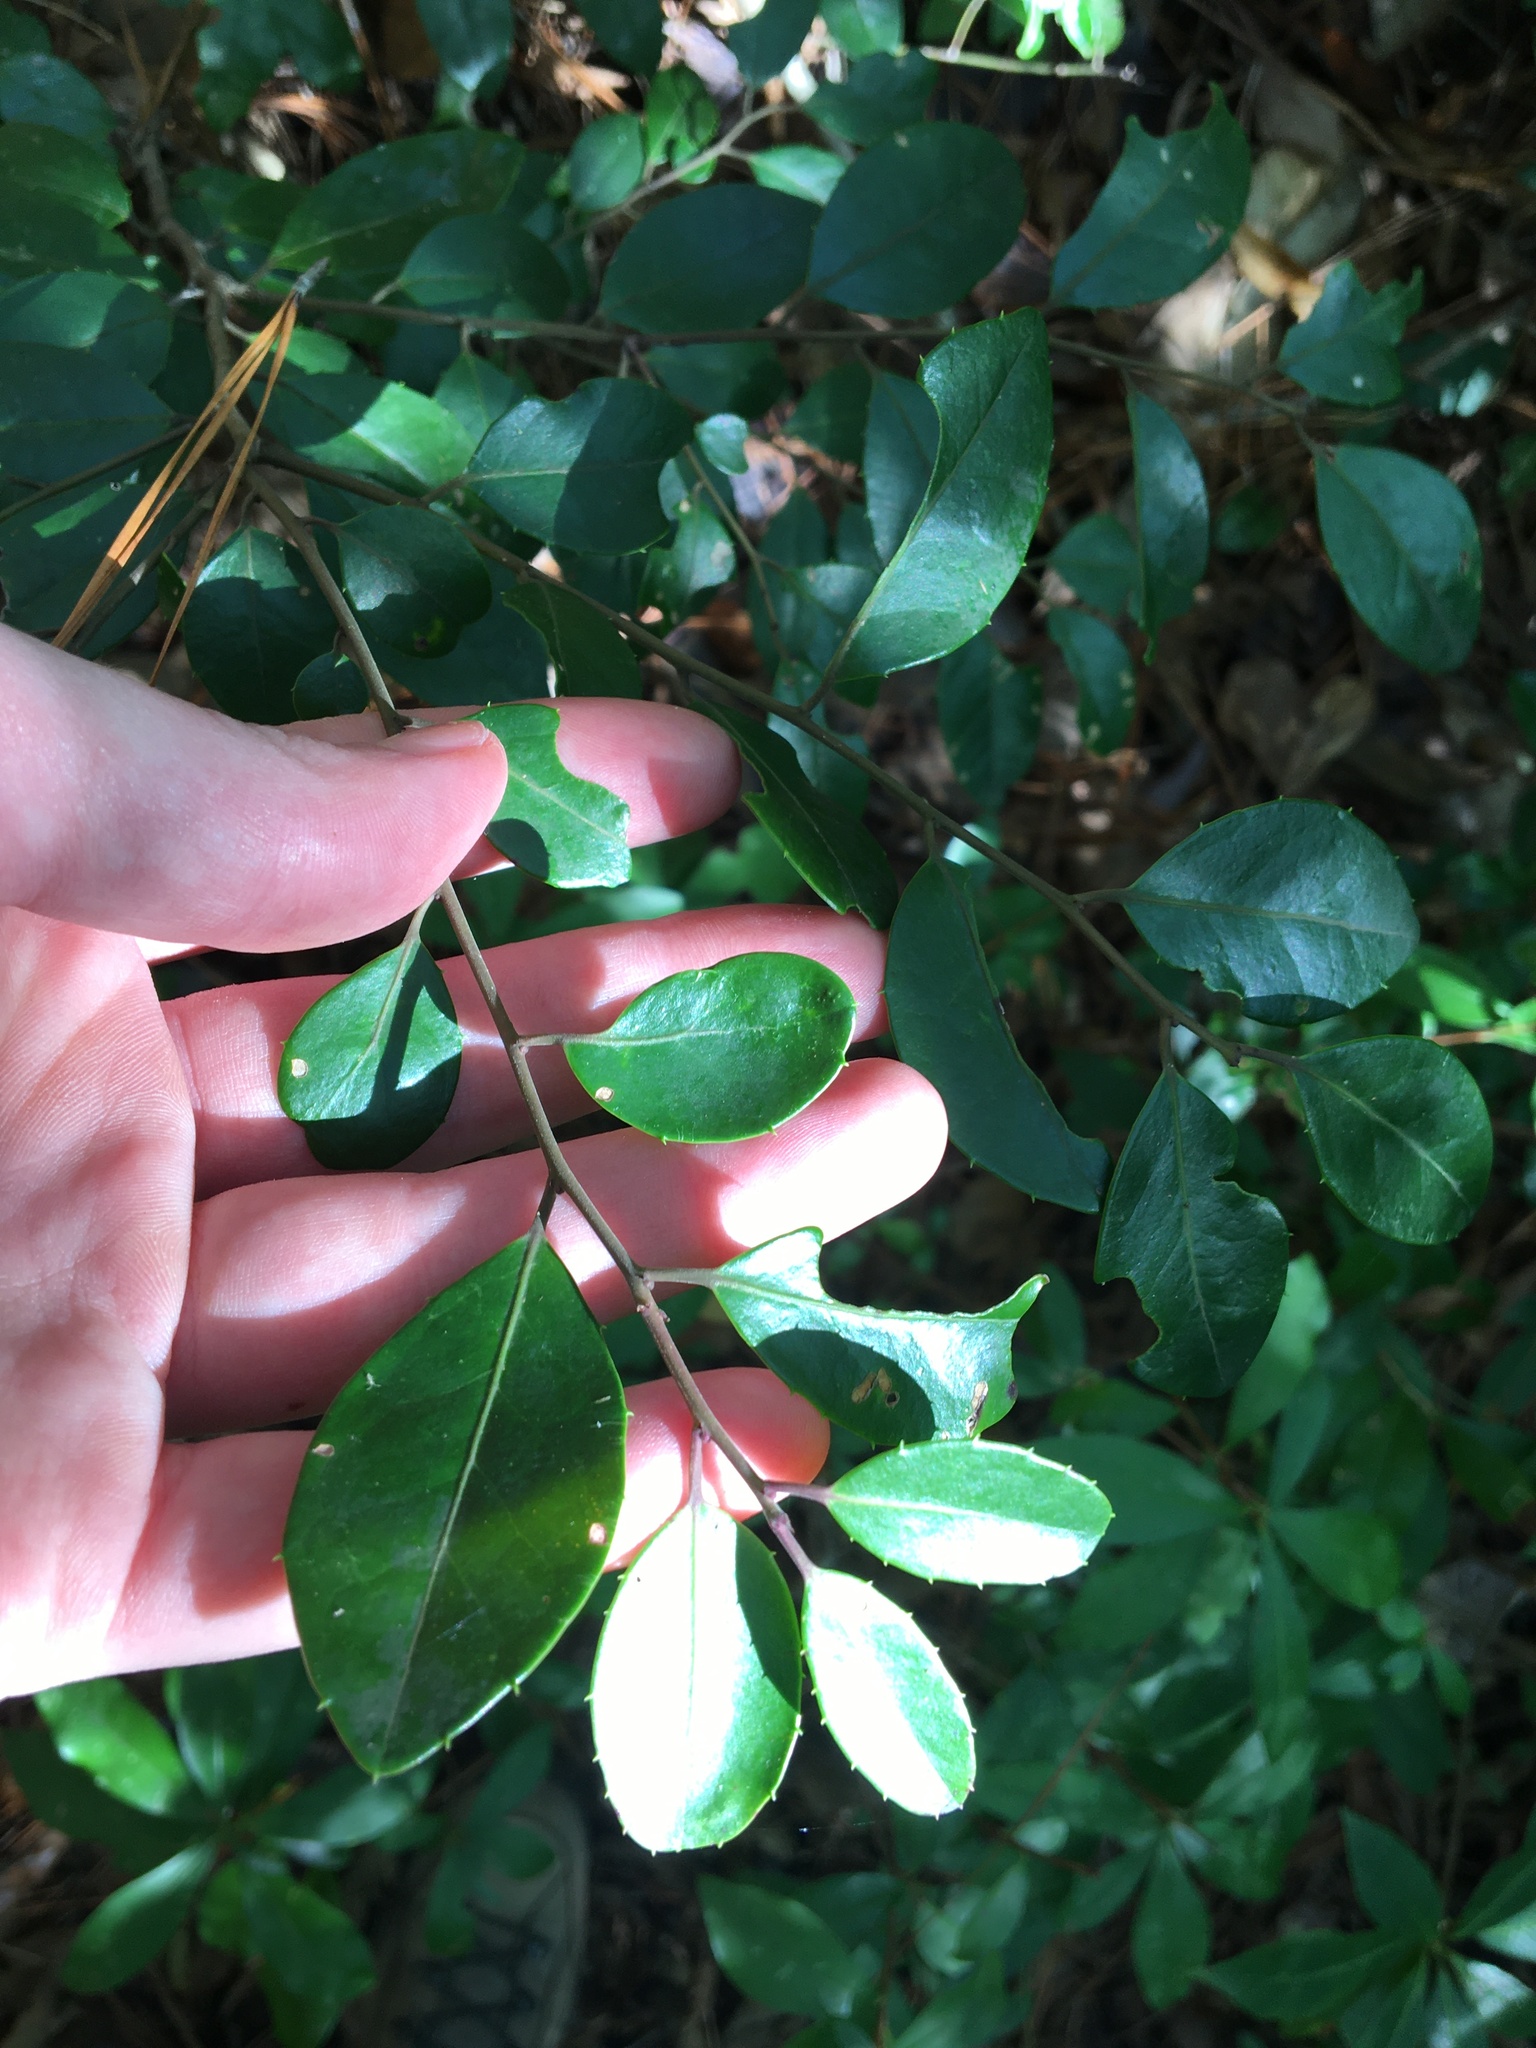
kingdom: Plantae
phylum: Tracheophyta
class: Magnoliopsida
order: Aquifoliales
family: Aquifoliaceae
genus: Ilex
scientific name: Ilex coriacea
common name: Sweet gallberry
